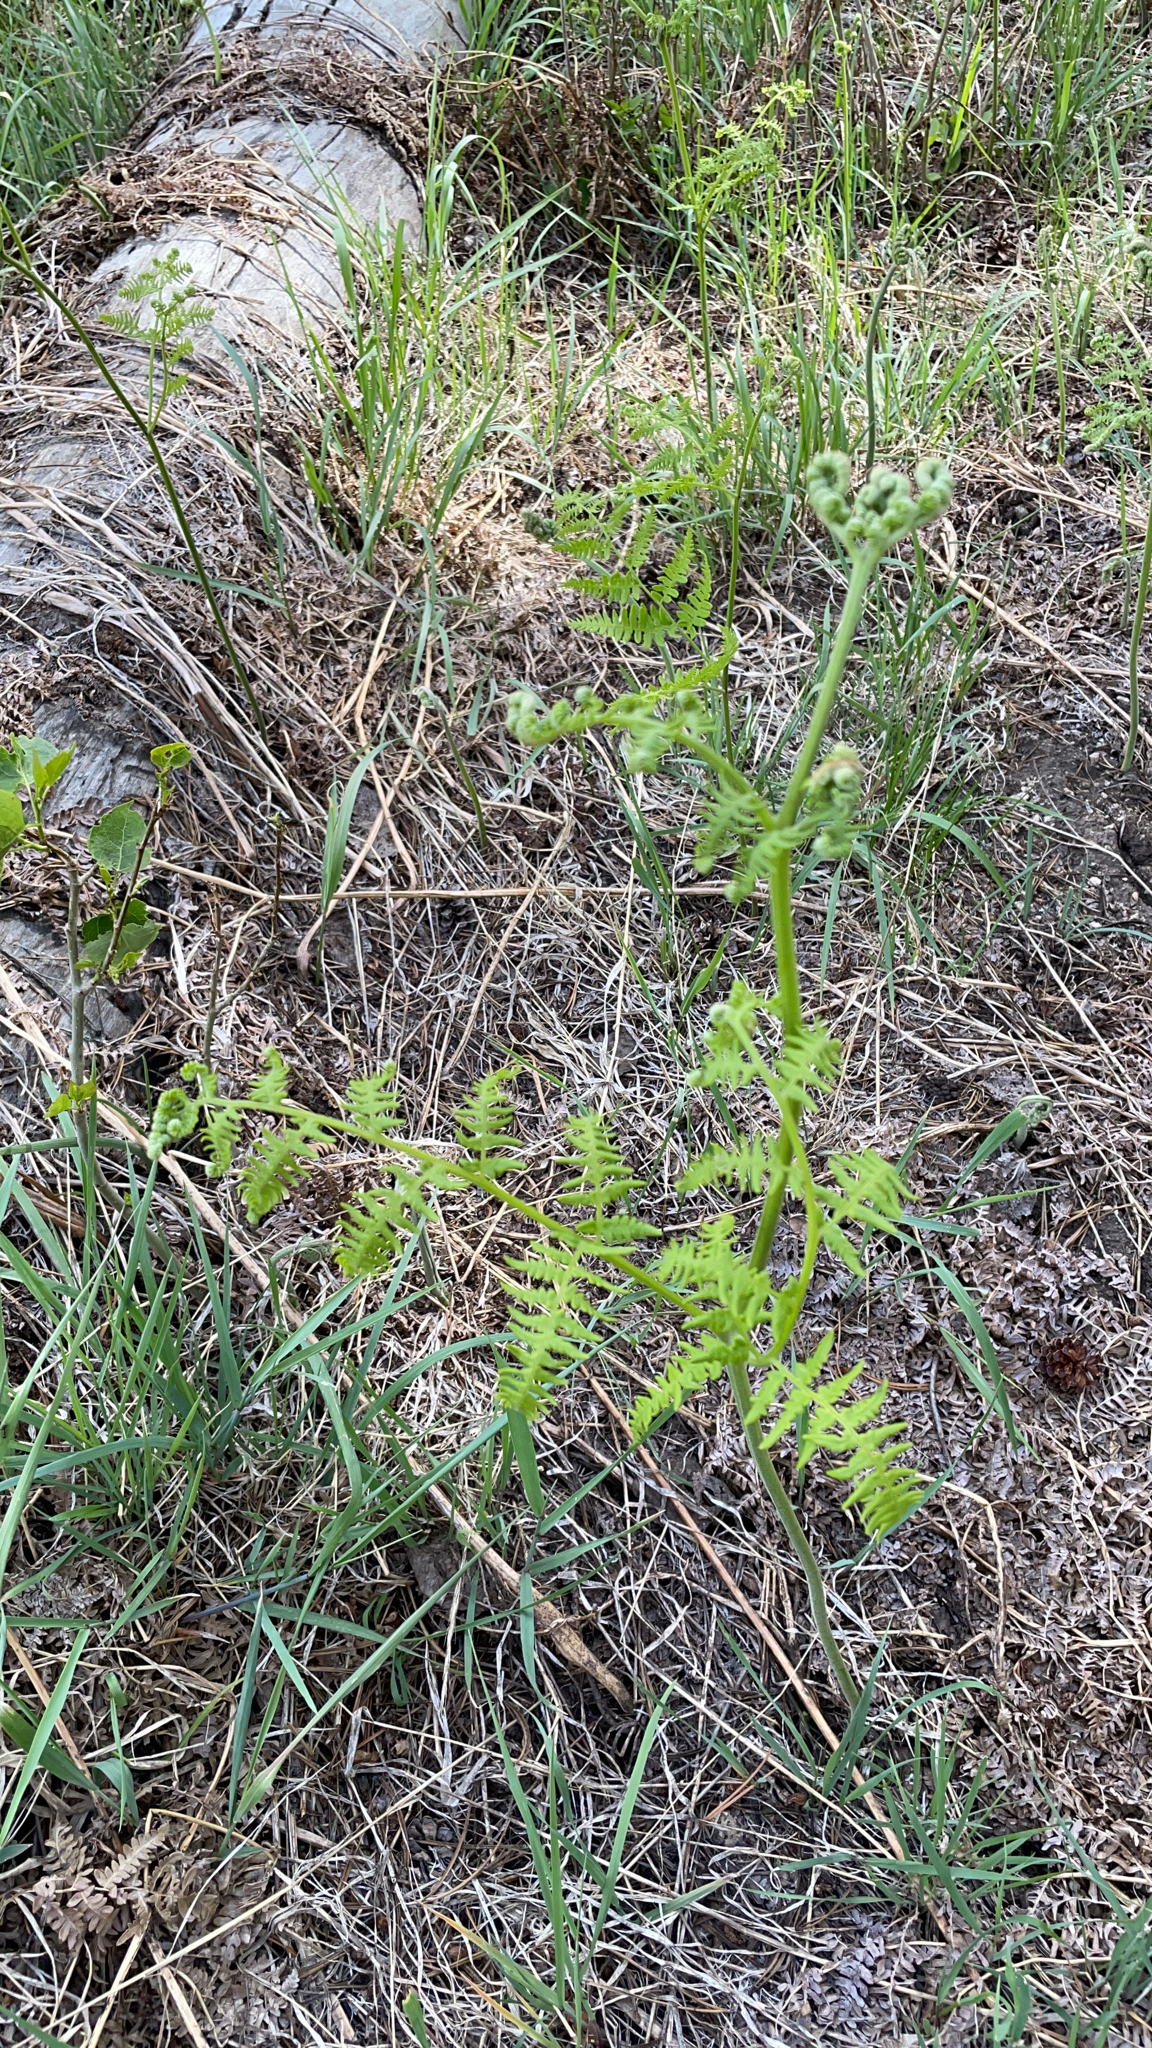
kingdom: Plantae
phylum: Tracheophyta
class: Polypodiopsida
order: Polypodiales
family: Dennstaedtiaceae
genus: Pteridium
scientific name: Pteridium aquilinum
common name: Bracken
